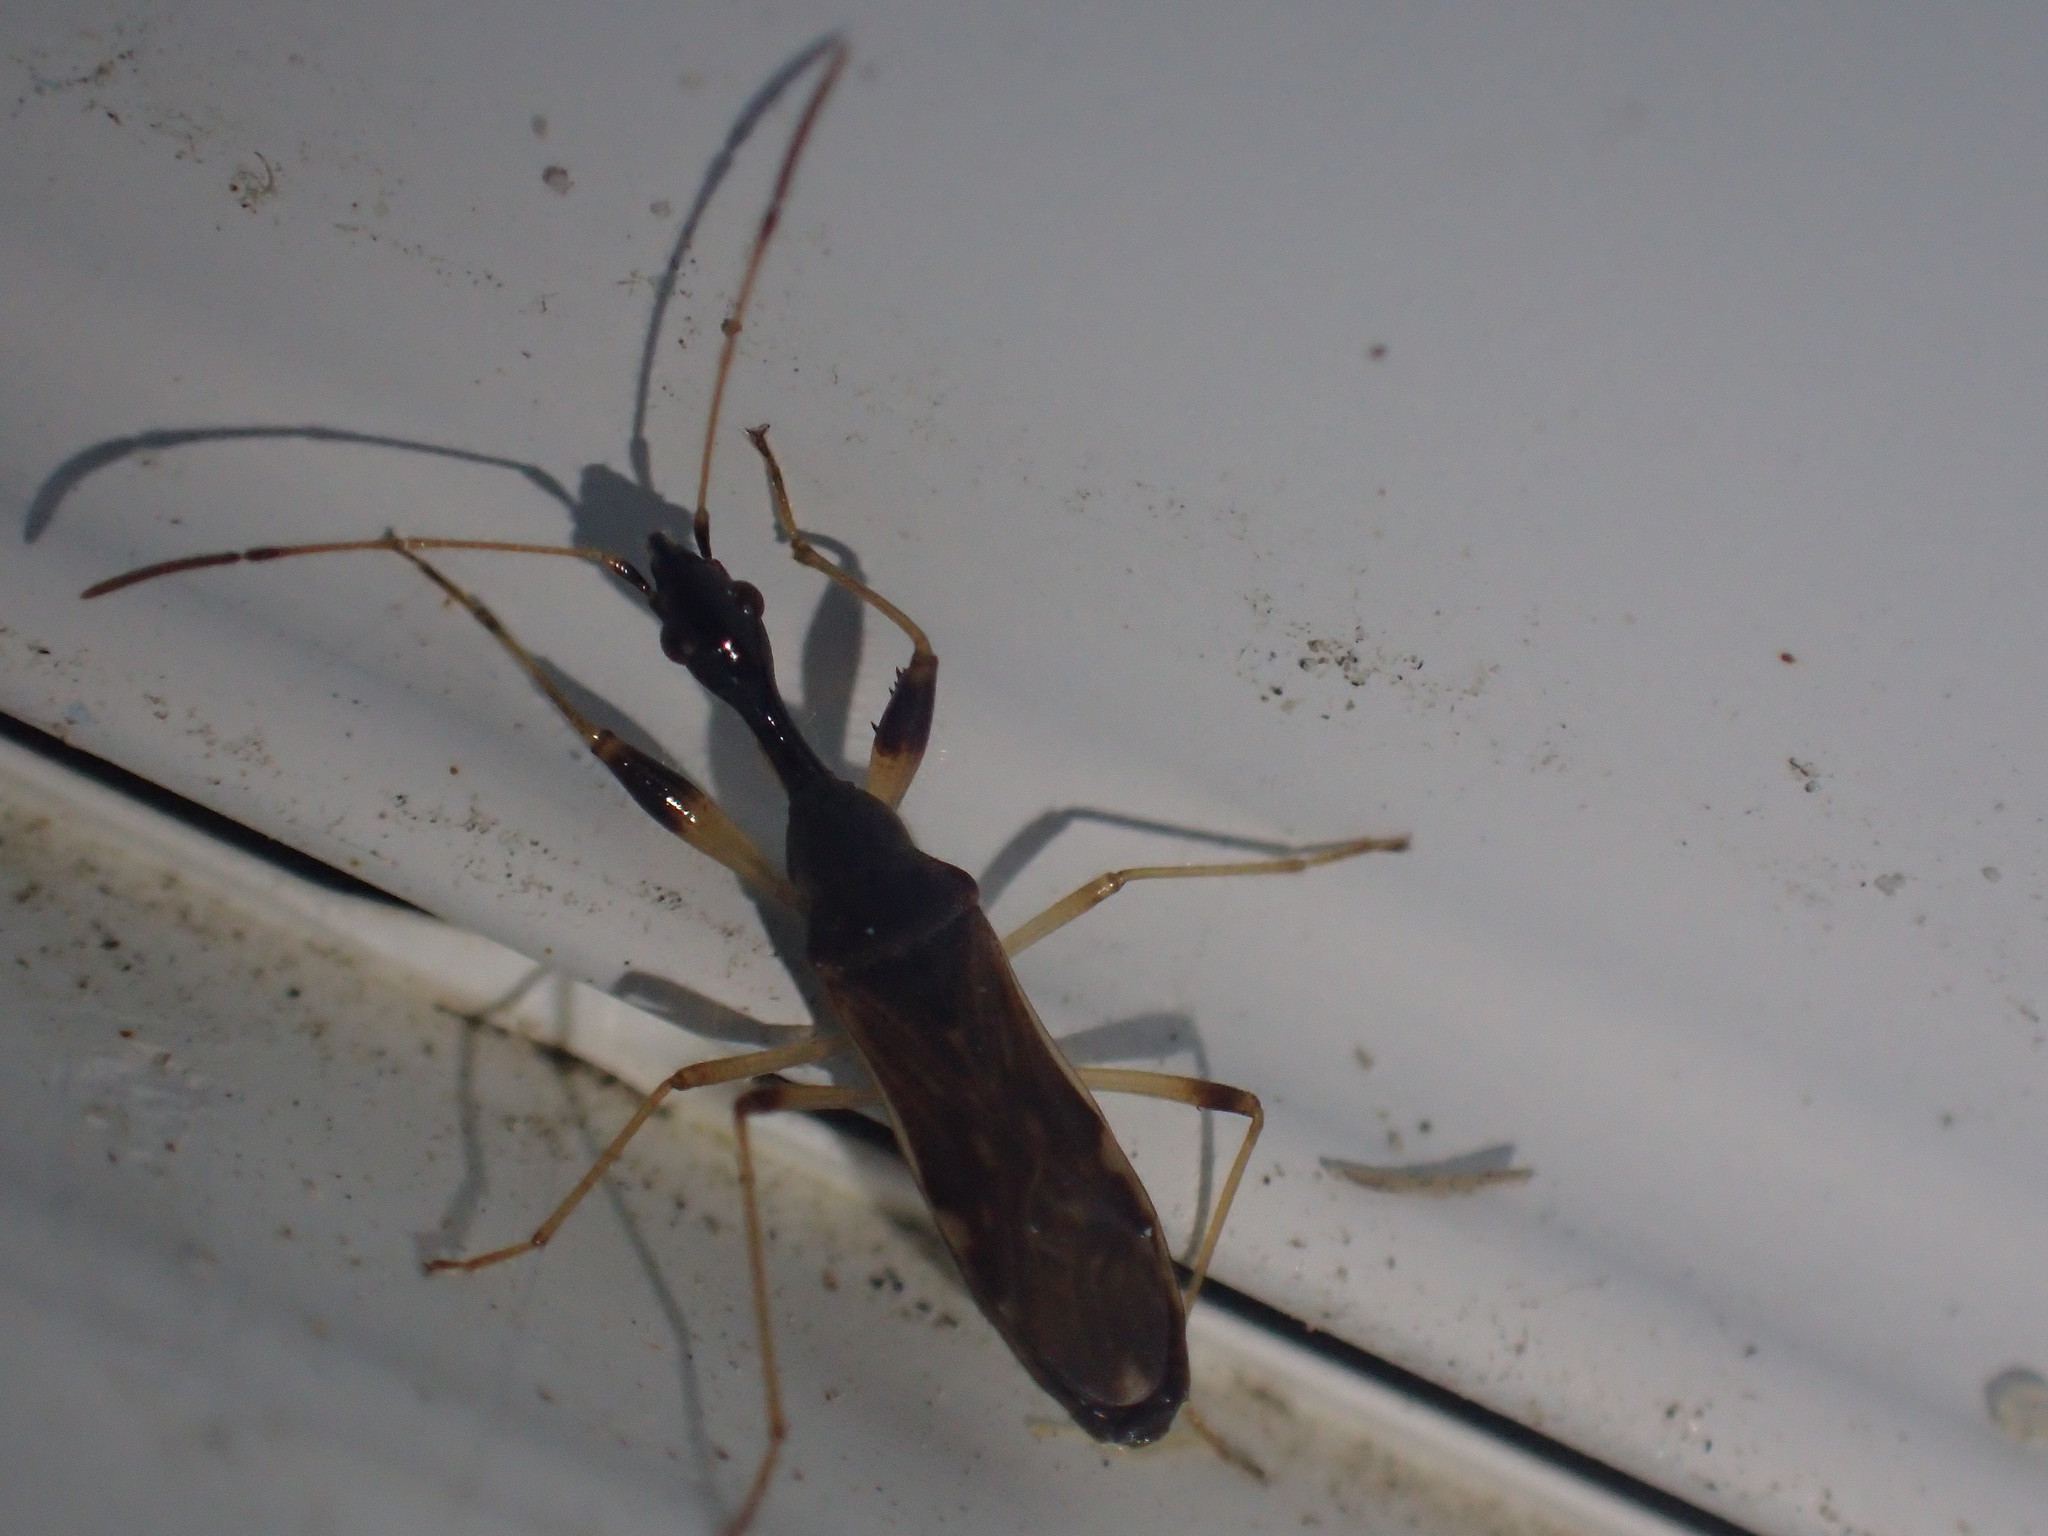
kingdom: Animalia
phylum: Arthropoda
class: Insecta
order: Hemiptera
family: Rhyparochromidae
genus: Myodocha
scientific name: Myodocha serripes
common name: Long-necked seed bug
